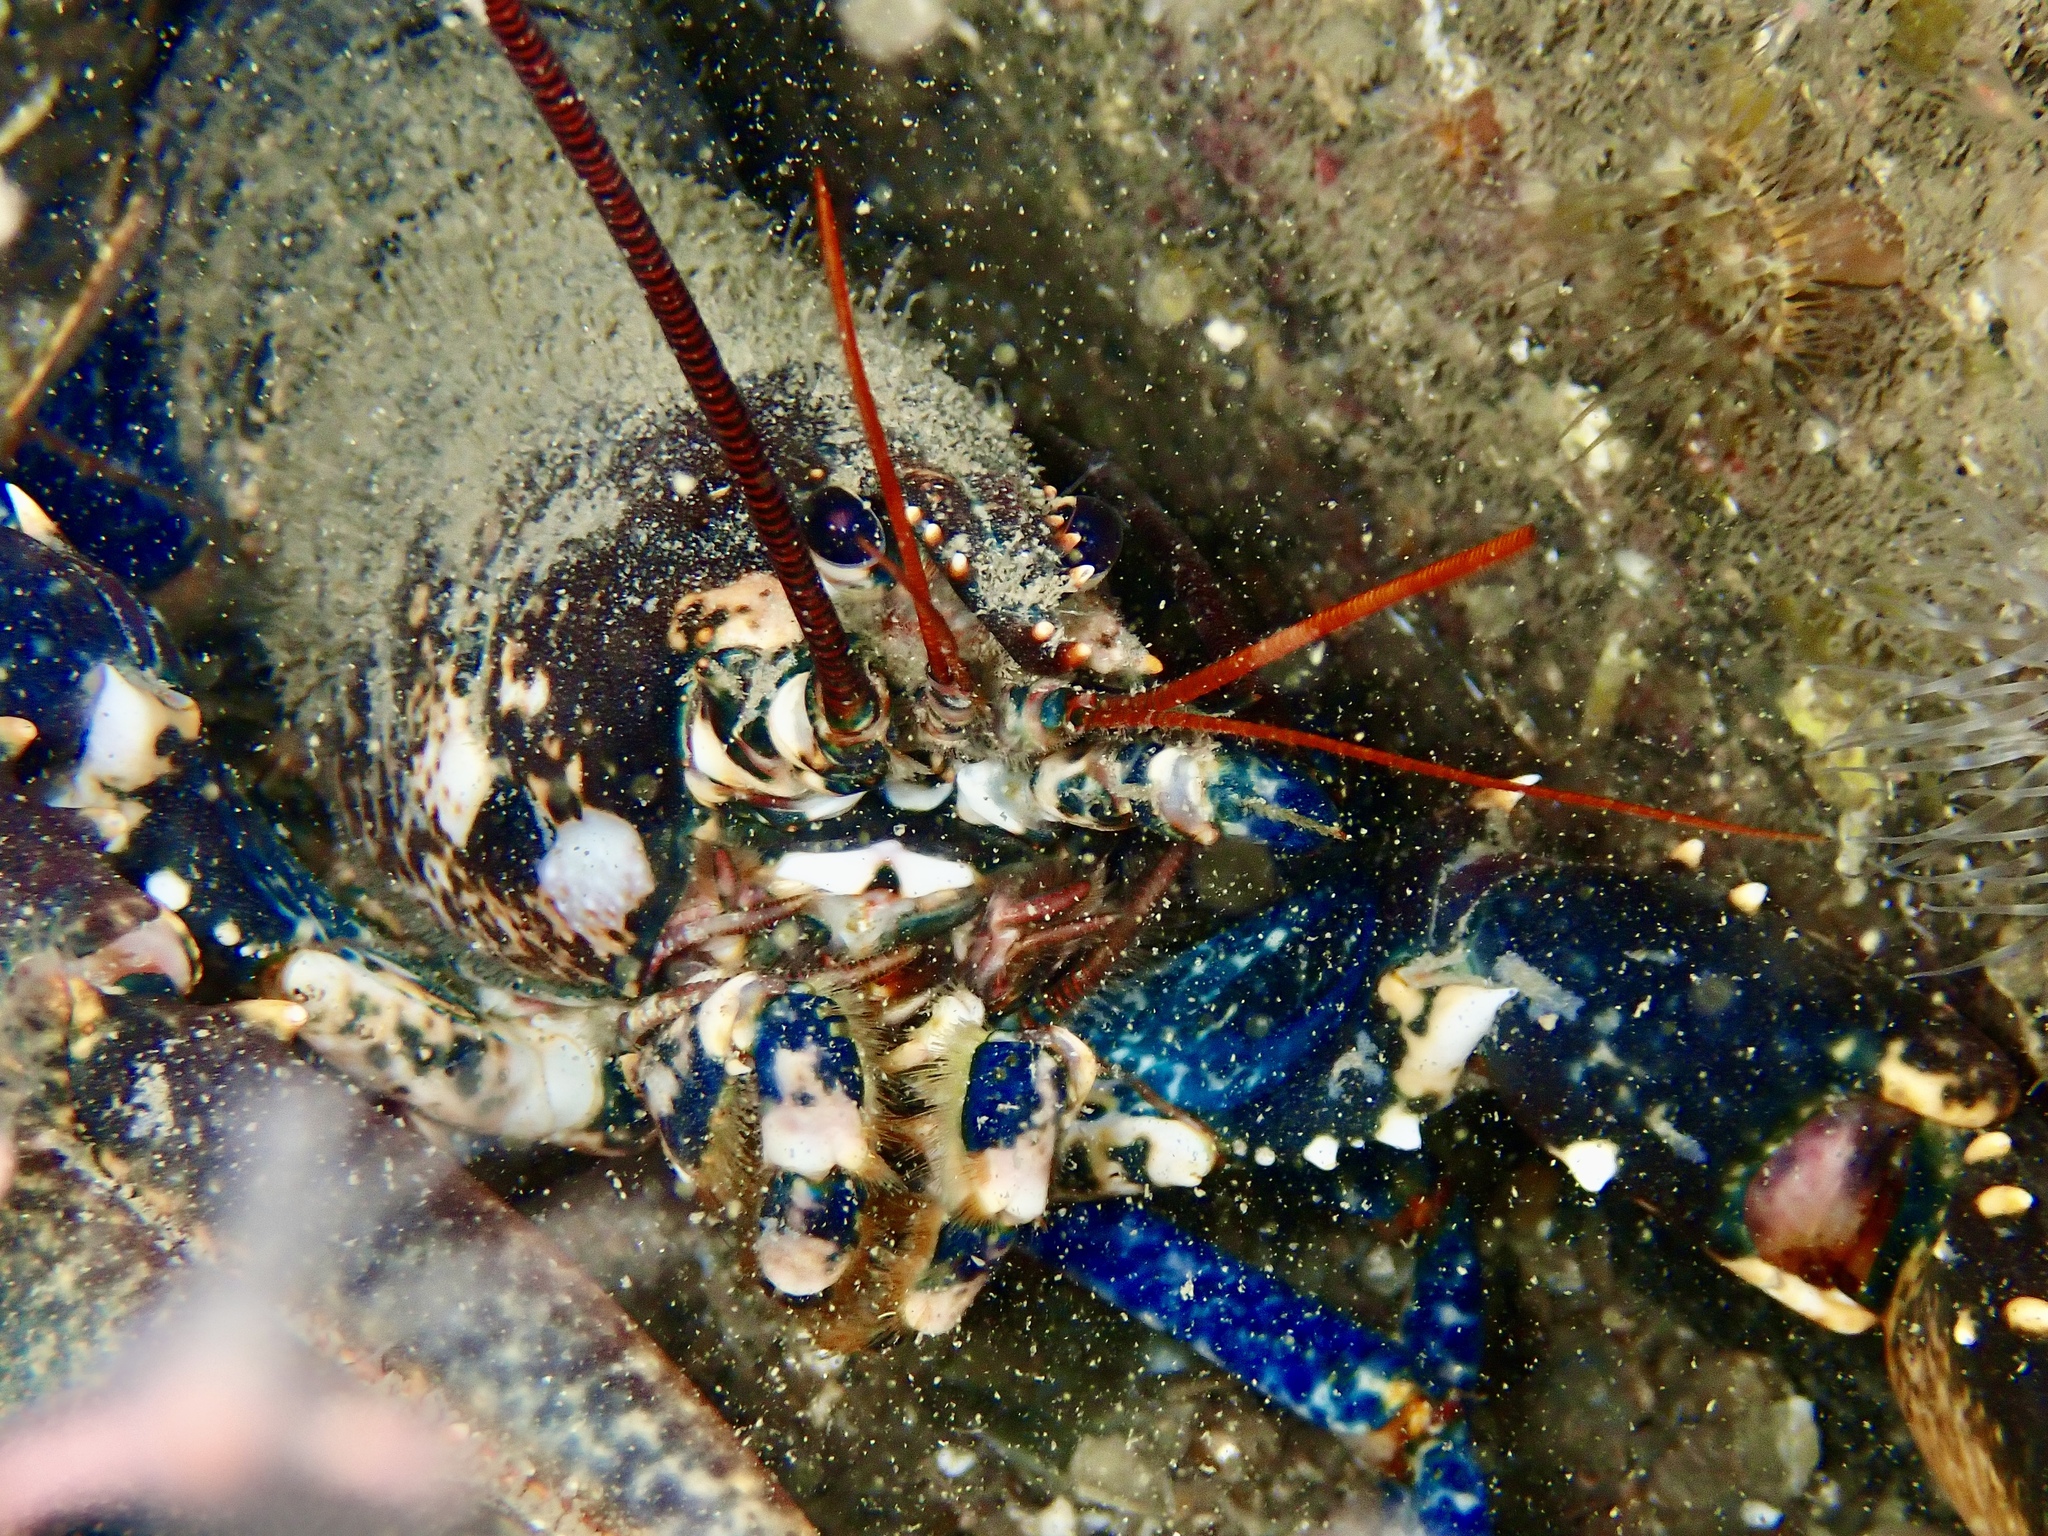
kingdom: Animalia
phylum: Arthropoda
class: Malacostraca
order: Decapoda
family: Nephropidae
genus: Homarus
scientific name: Homarus gammarus
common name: European lobster
